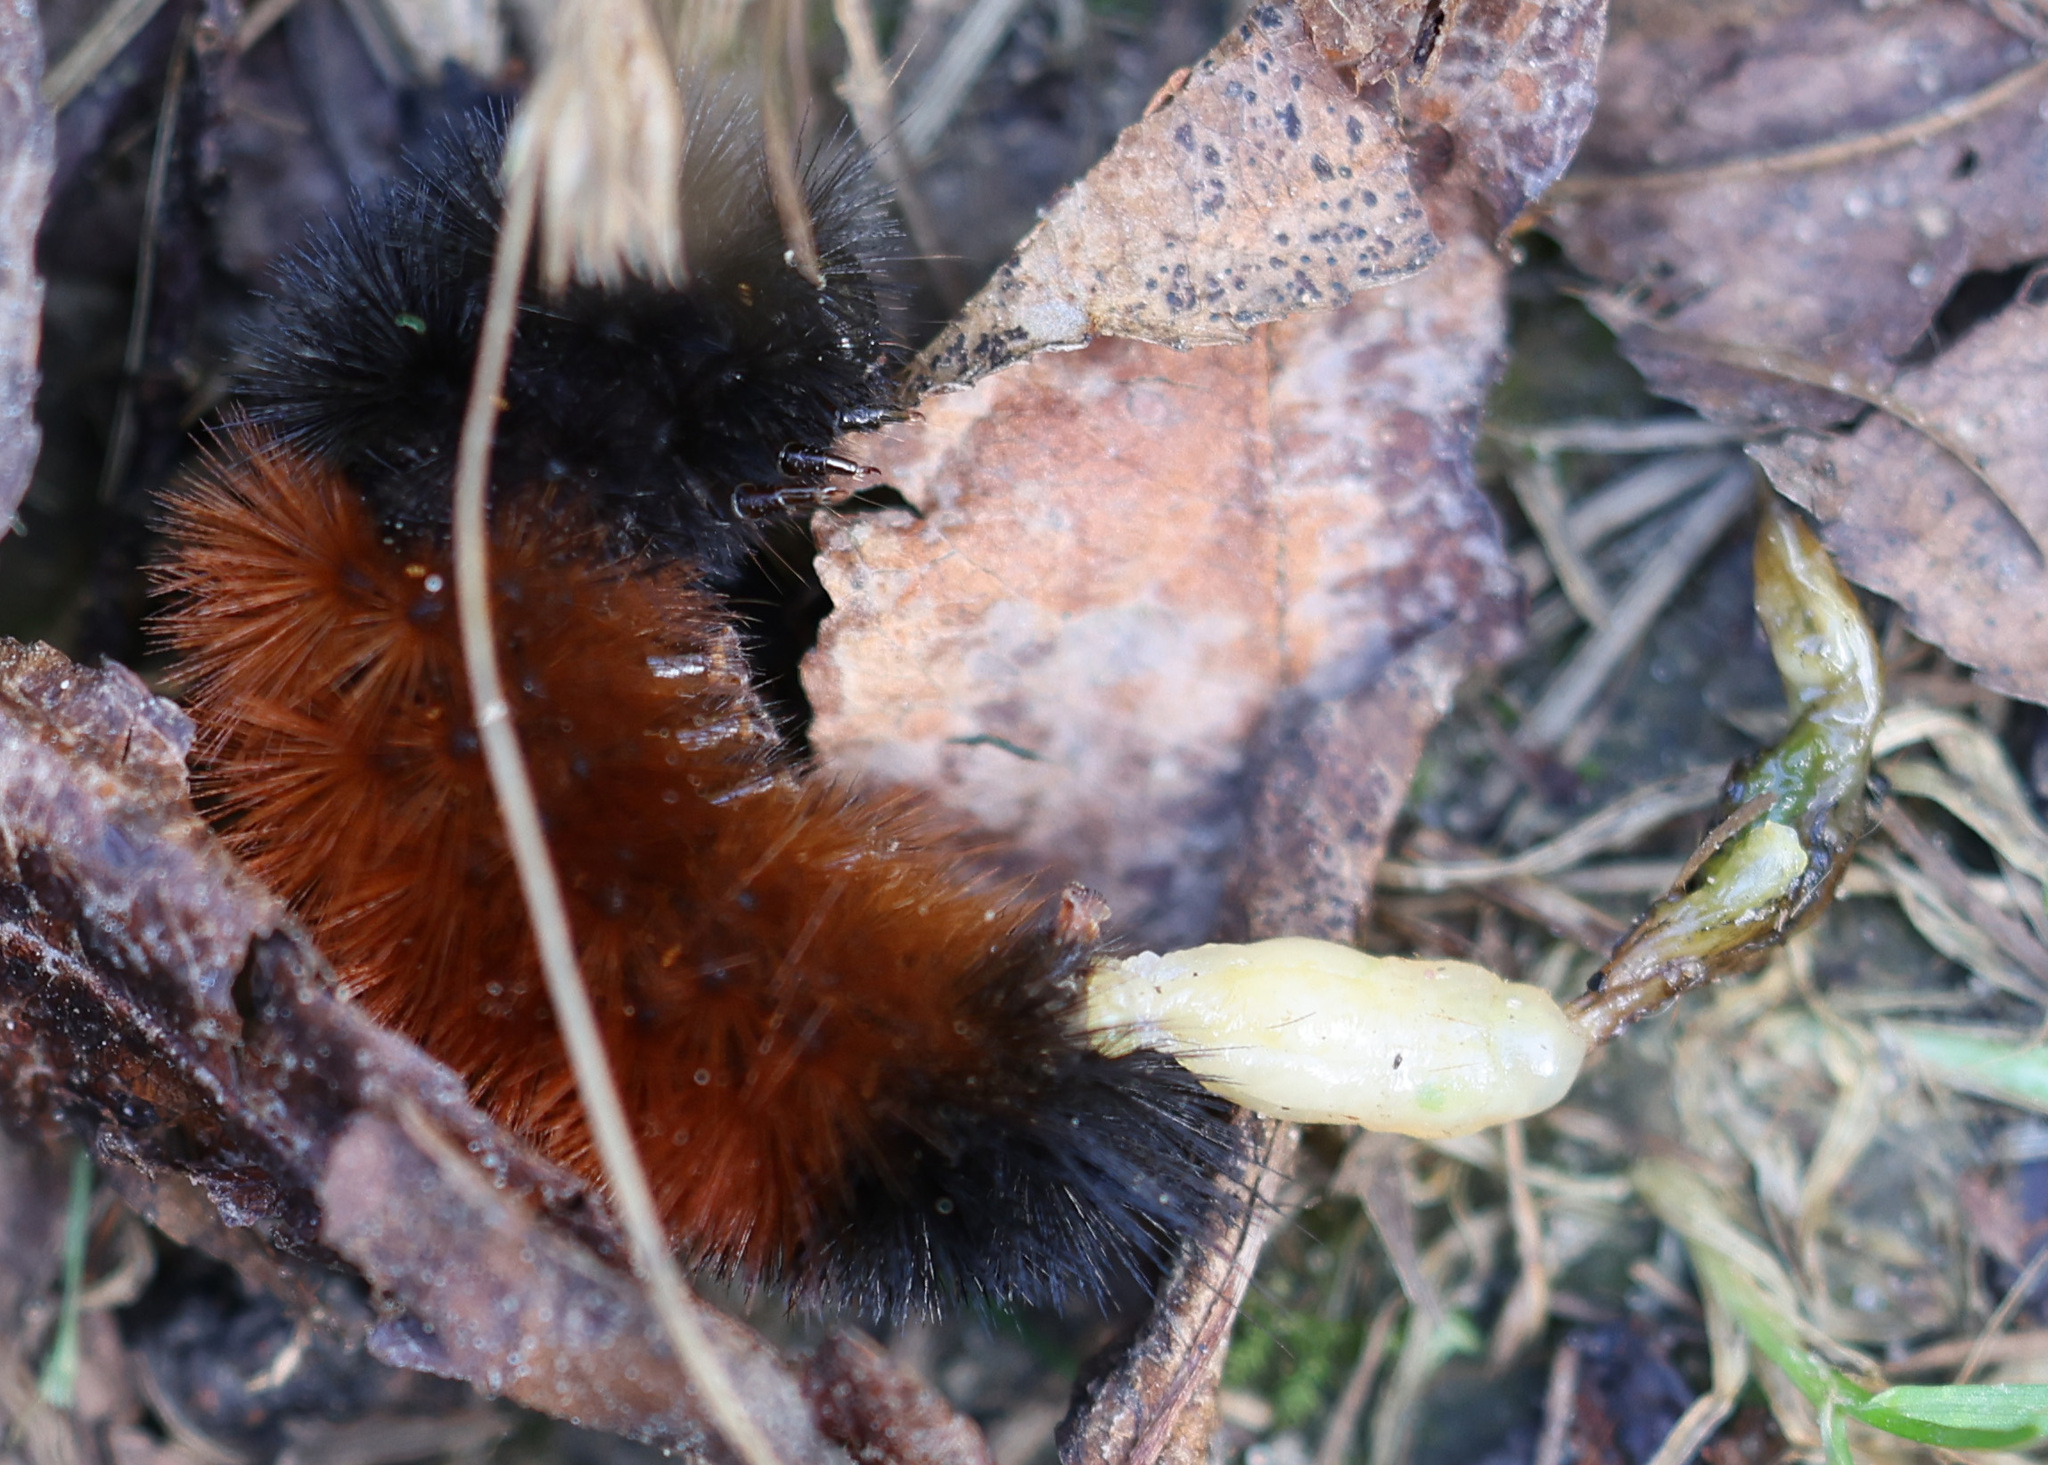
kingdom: Animalia
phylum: Arthropoda
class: Insecta
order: Lepidoptera
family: Erebidae
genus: Pyrrharctia
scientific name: Pyrrharctia isabella
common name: Isabella tiger moth
